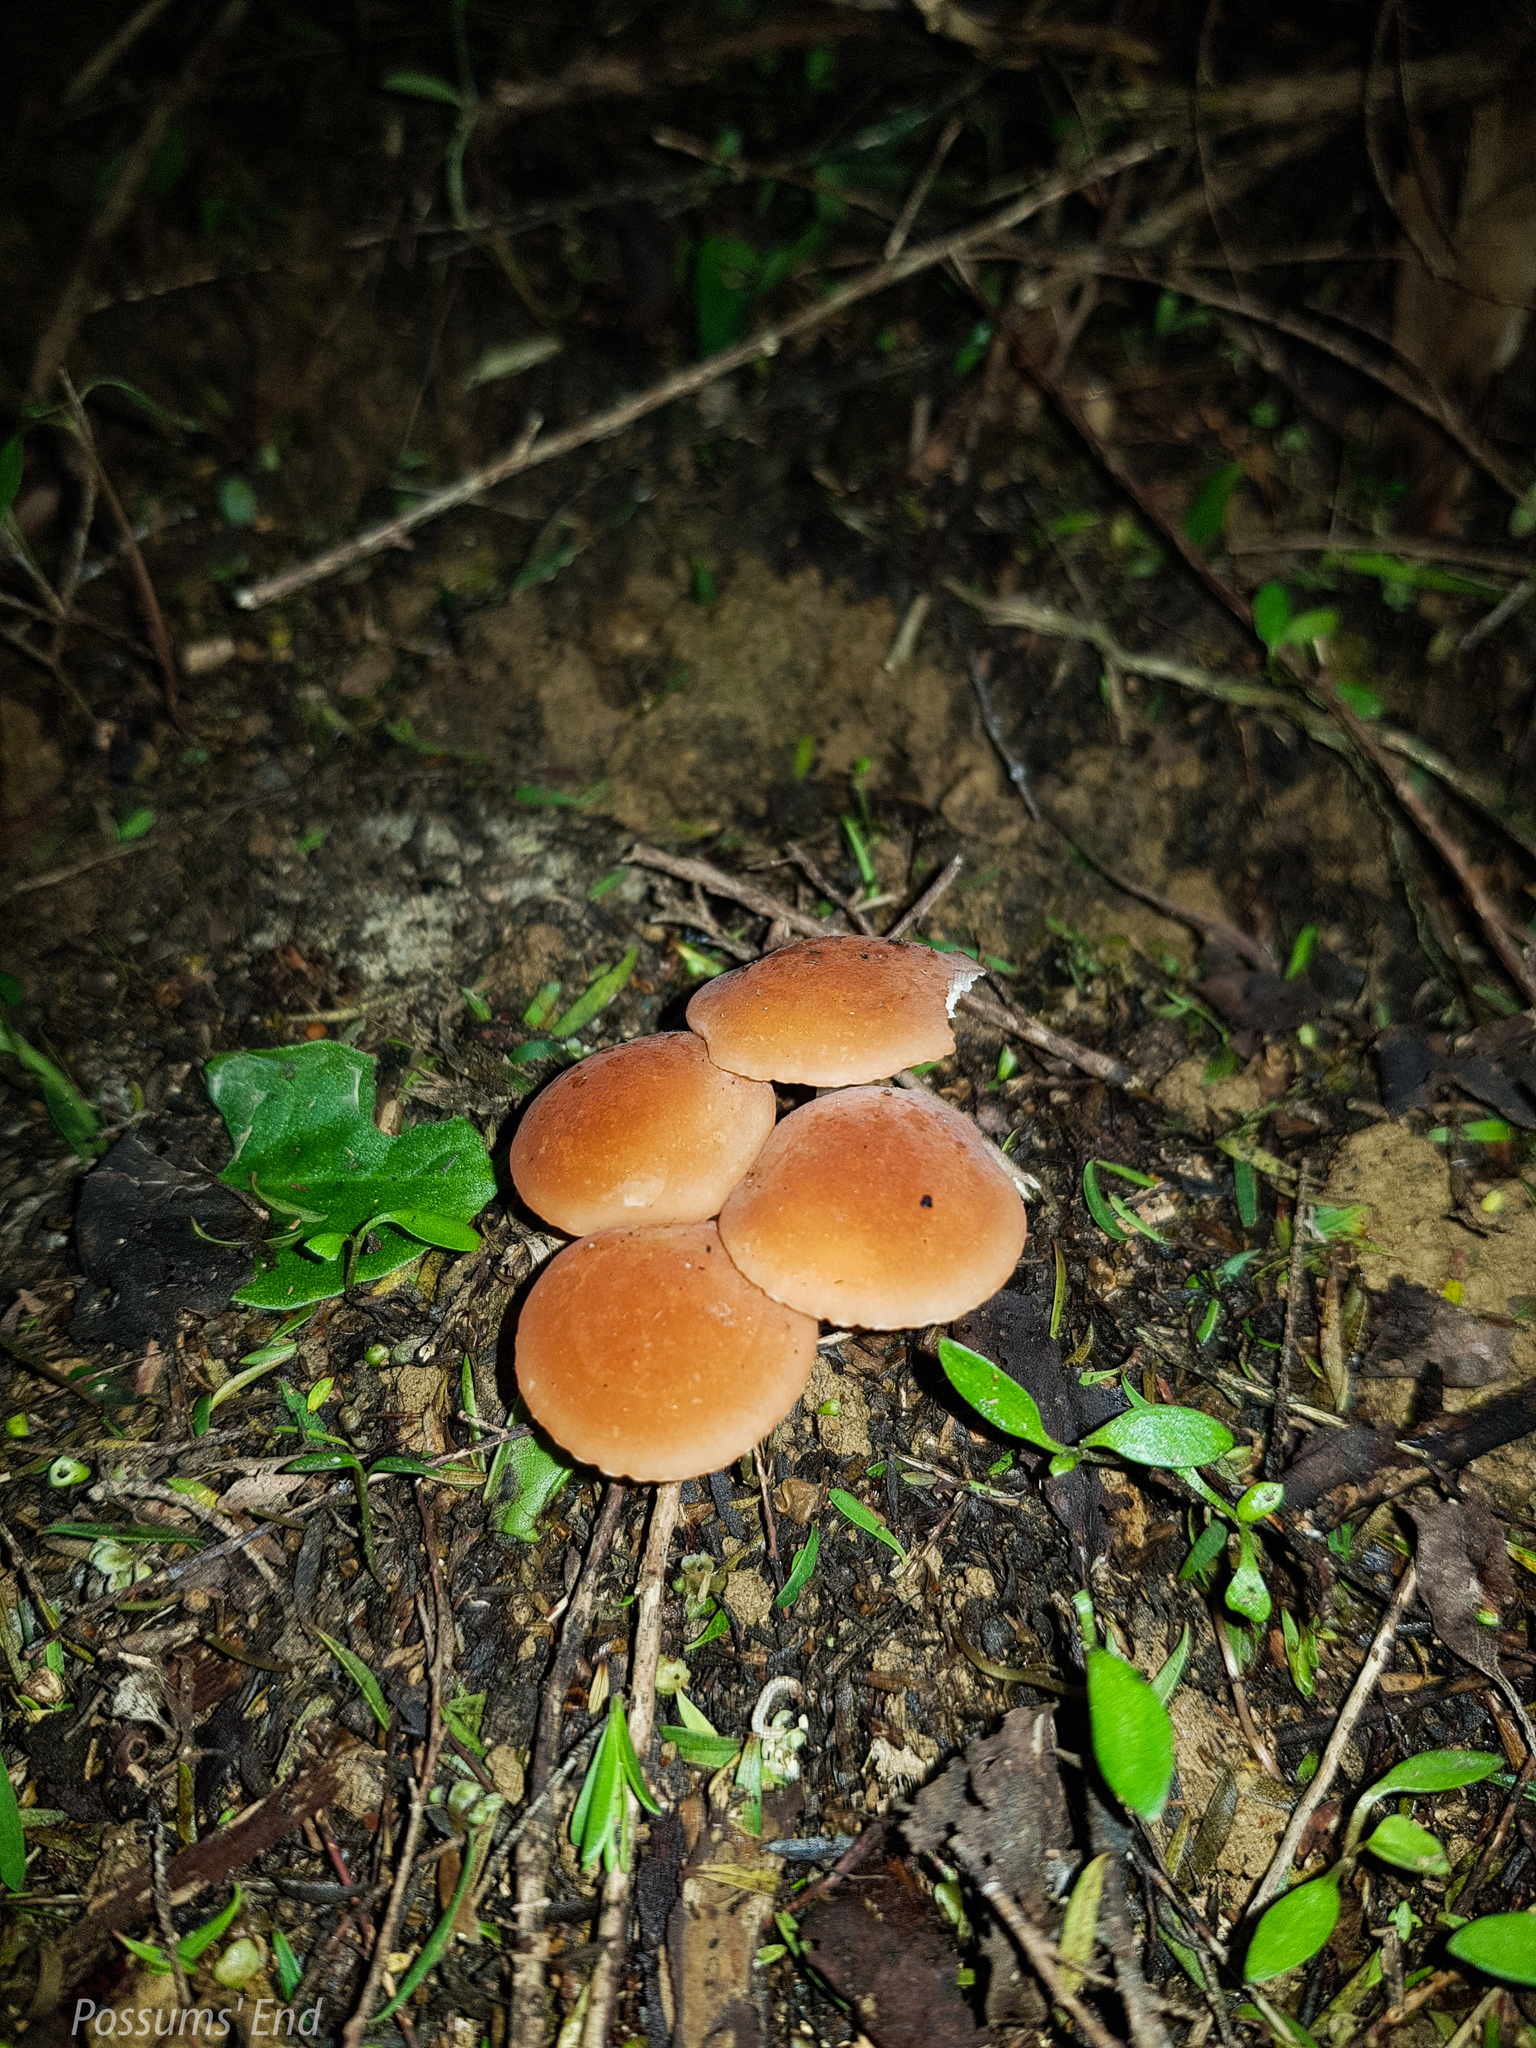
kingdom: Fungi
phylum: Basidiomycota
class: Agaricomycetes
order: Agaricales
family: Marasmiaceae
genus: Marasmius
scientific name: Marasmius elegans
